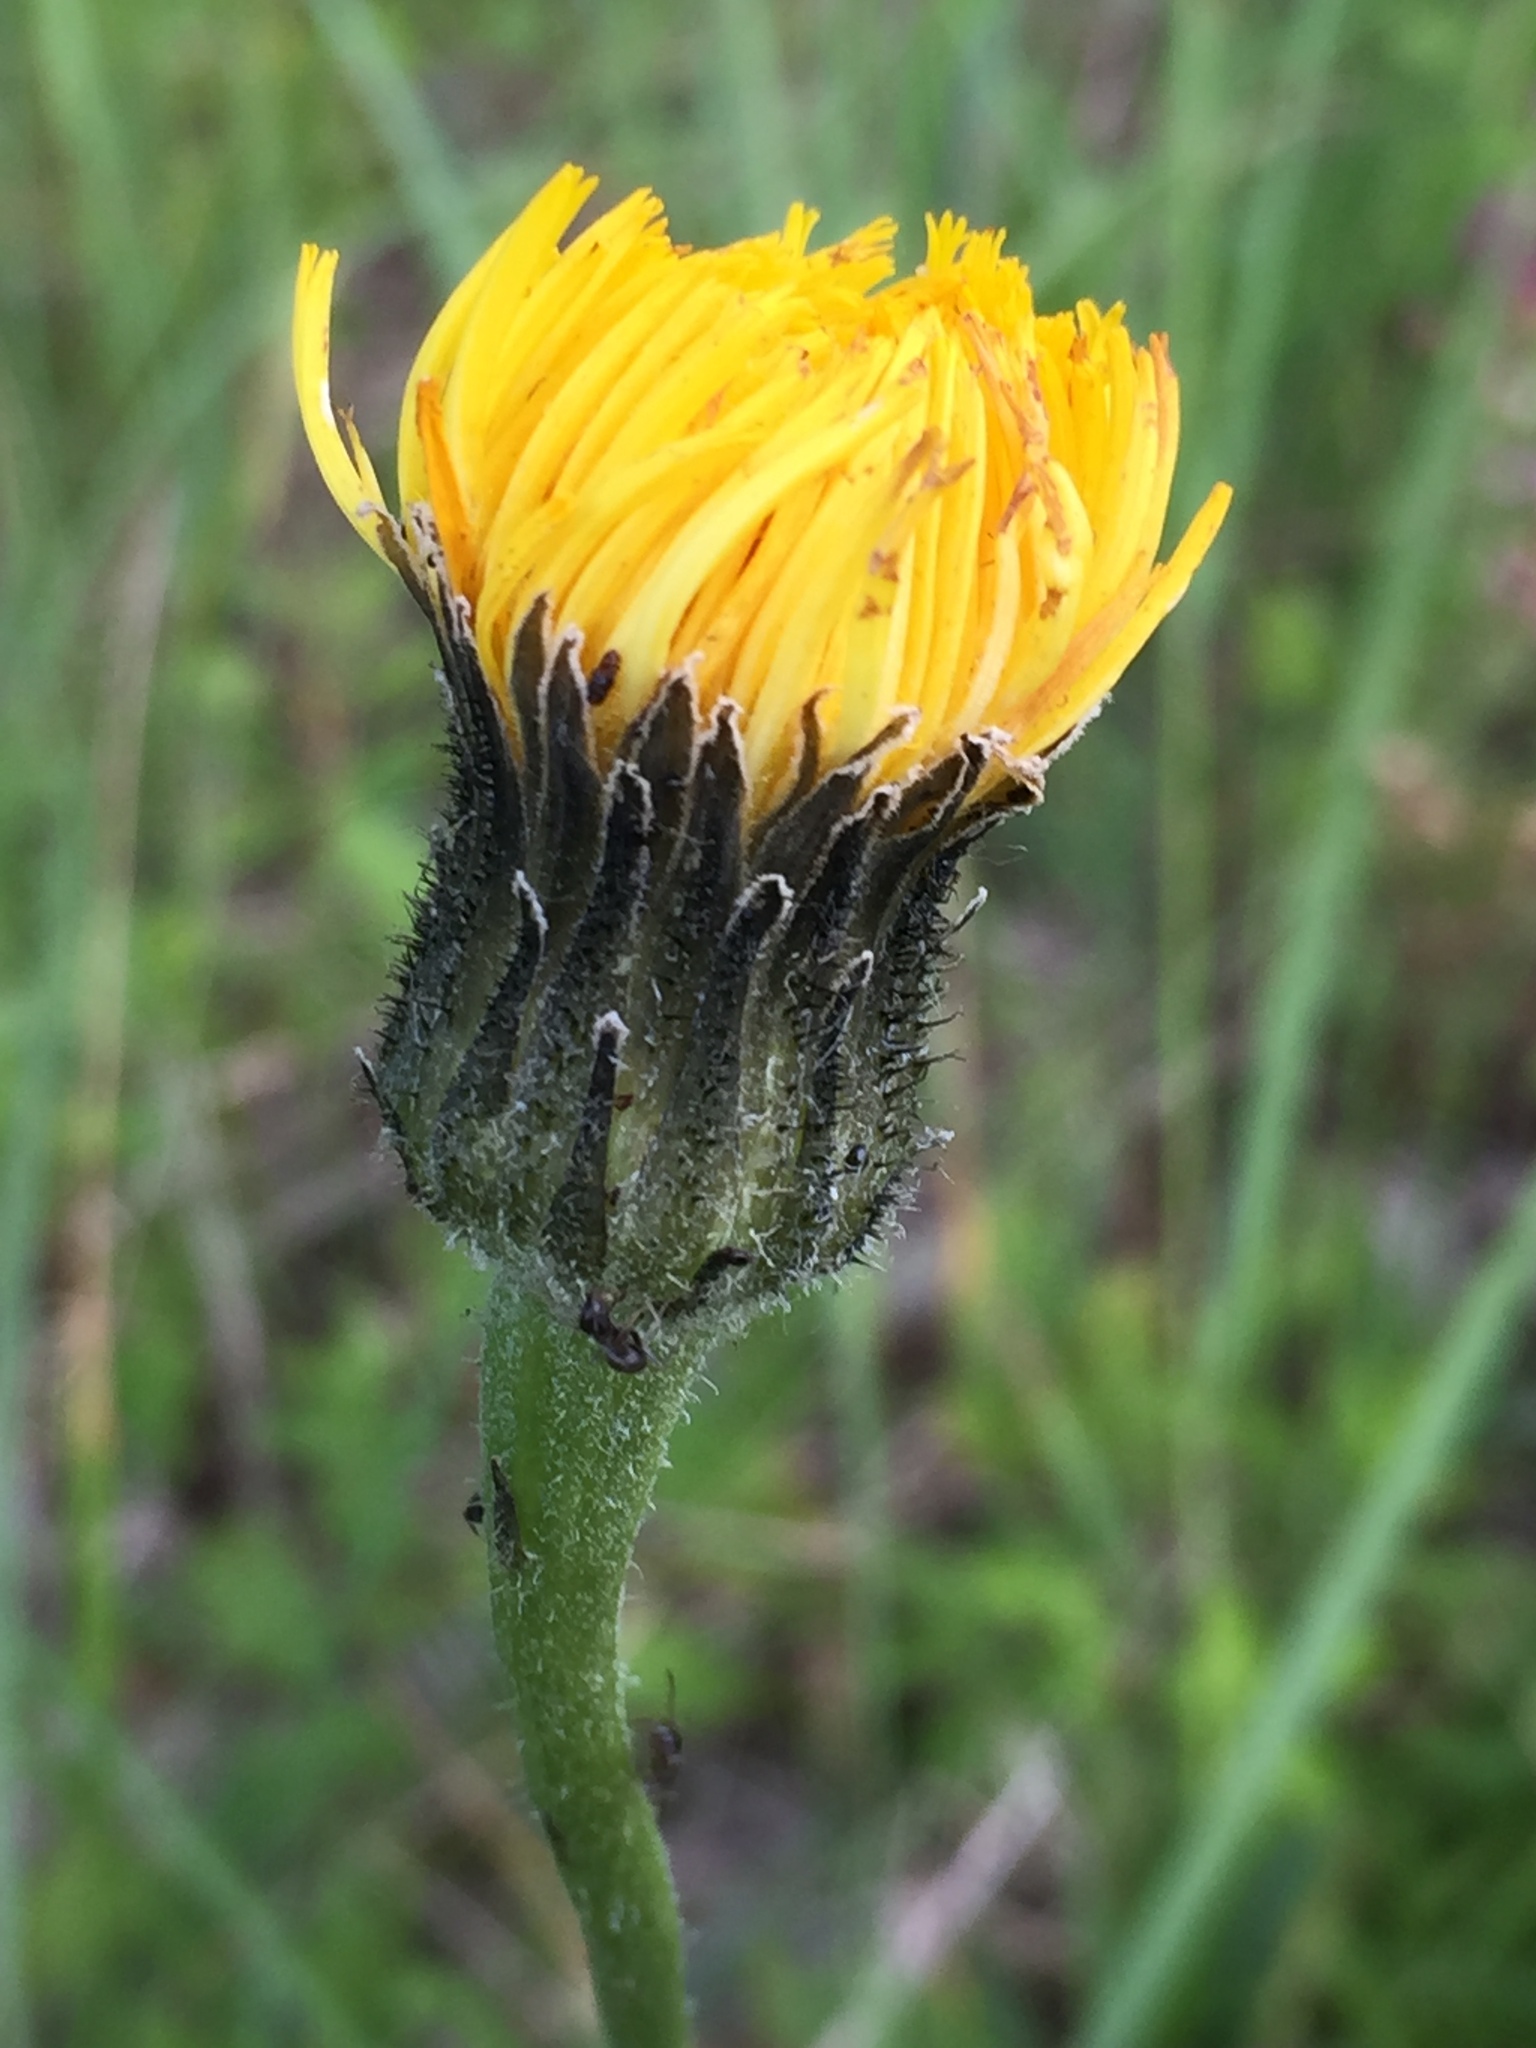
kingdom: Plantae
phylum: Tracheophyta
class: Magnoliopsida
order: Asterales
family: Asteraceae
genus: Trommsdorffia
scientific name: Trommsdorffia maculata
